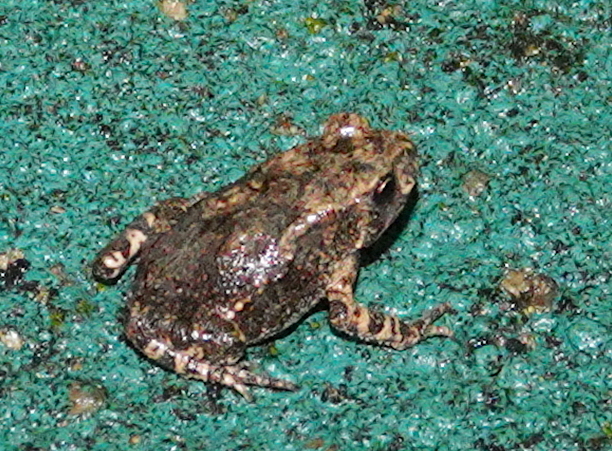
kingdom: Animalia
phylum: Chordata
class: Amphibia
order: Anura
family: Bufonidae
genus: Duttaphrynus
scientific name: Duttaphrynus melanostictus
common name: Common sunda toad
